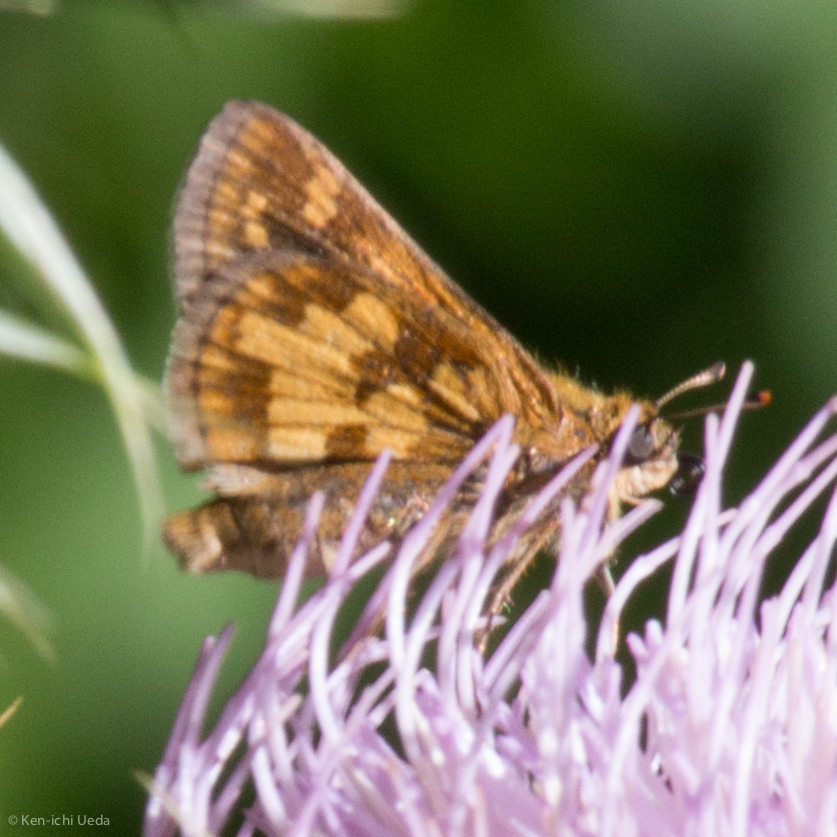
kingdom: Animalia
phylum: Arthropoda
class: Insecta
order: Lepidoptera
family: Hesperiidae
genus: Polites
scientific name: Polites coras
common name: Peck's skipper
